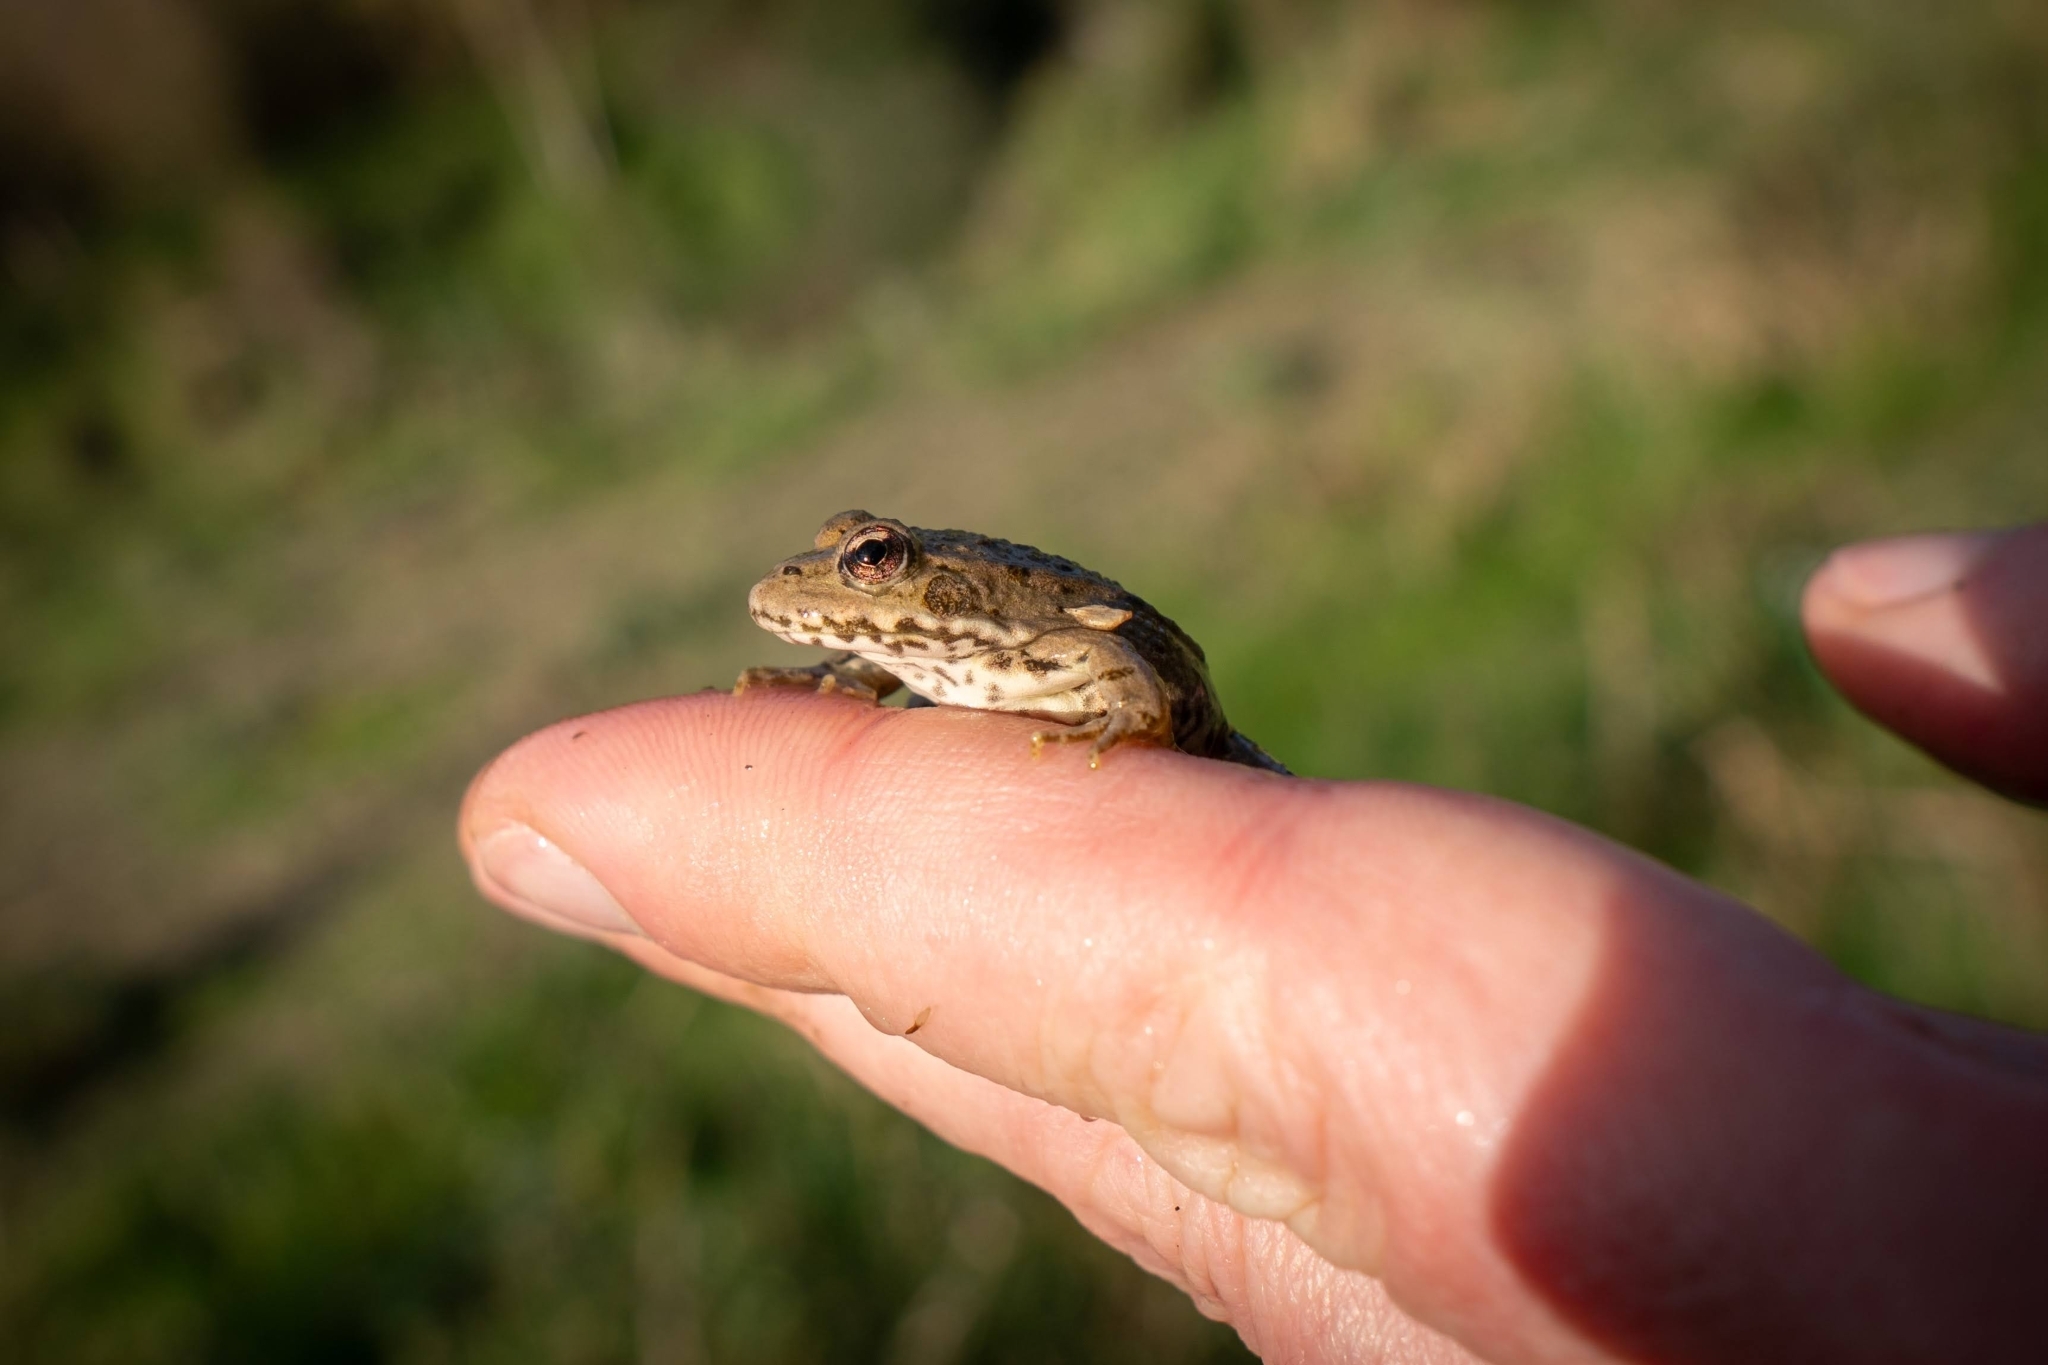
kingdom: Animalia
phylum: Chordata
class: Amphibia
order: Anura
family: Ranidae
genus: Pelophylax
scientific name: Pelophylax
